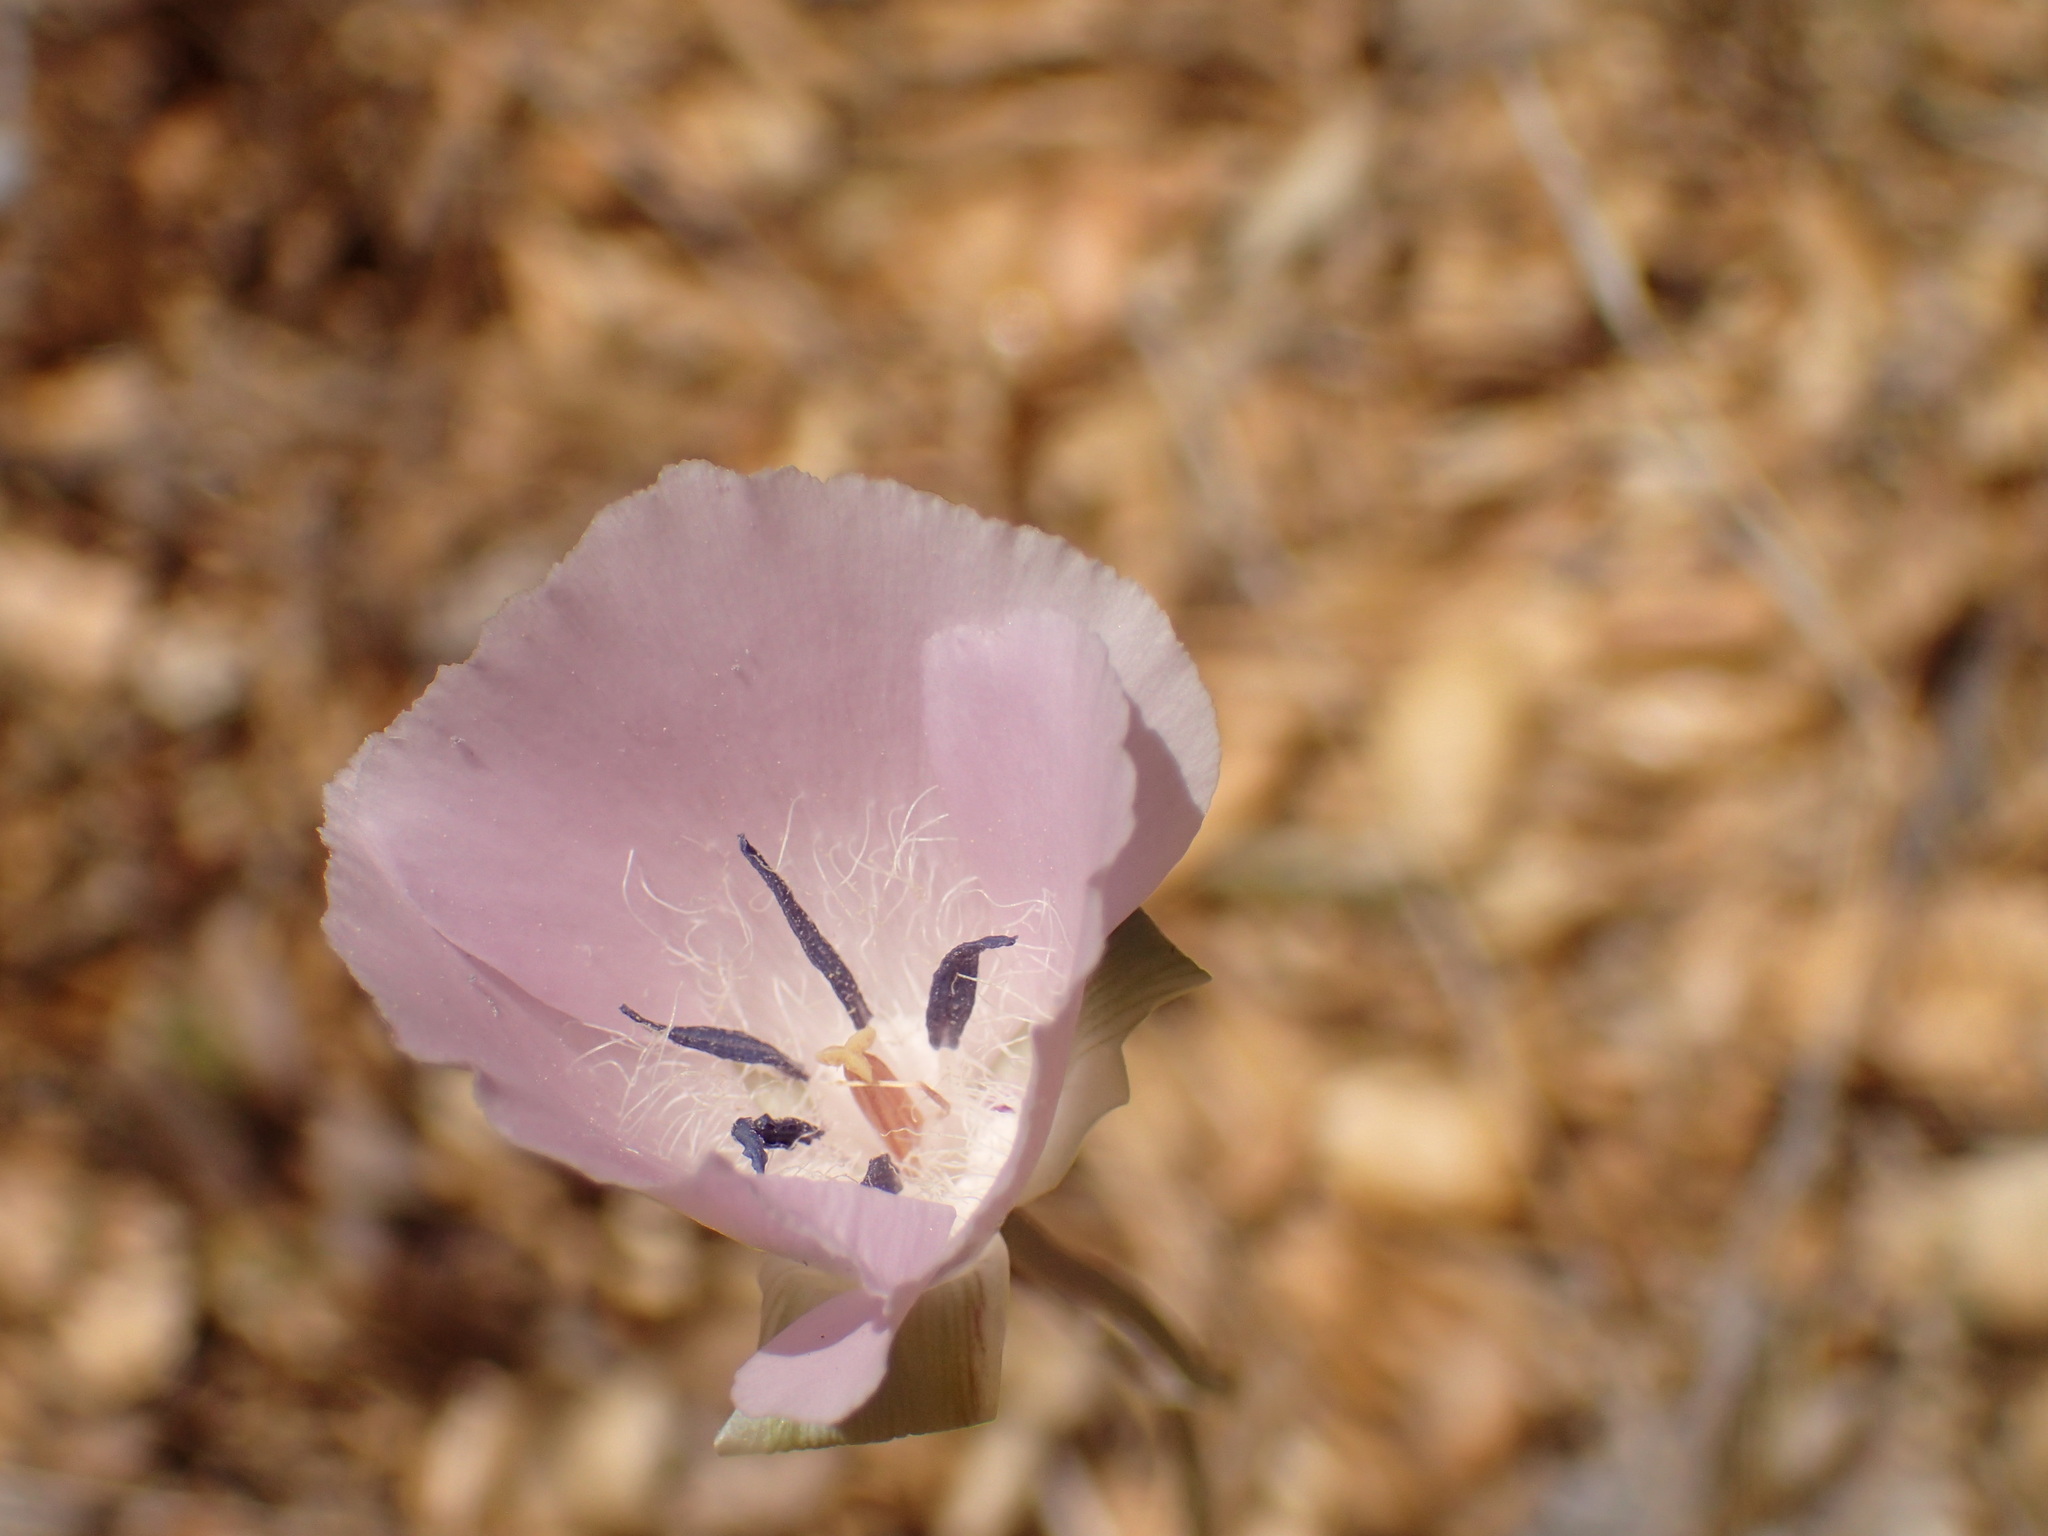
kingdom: Plantae
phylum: Tracheophyta
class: Liliopsida
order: Liliales
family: Liliaceae
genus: Calochortus
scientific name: Calochortus splendens
